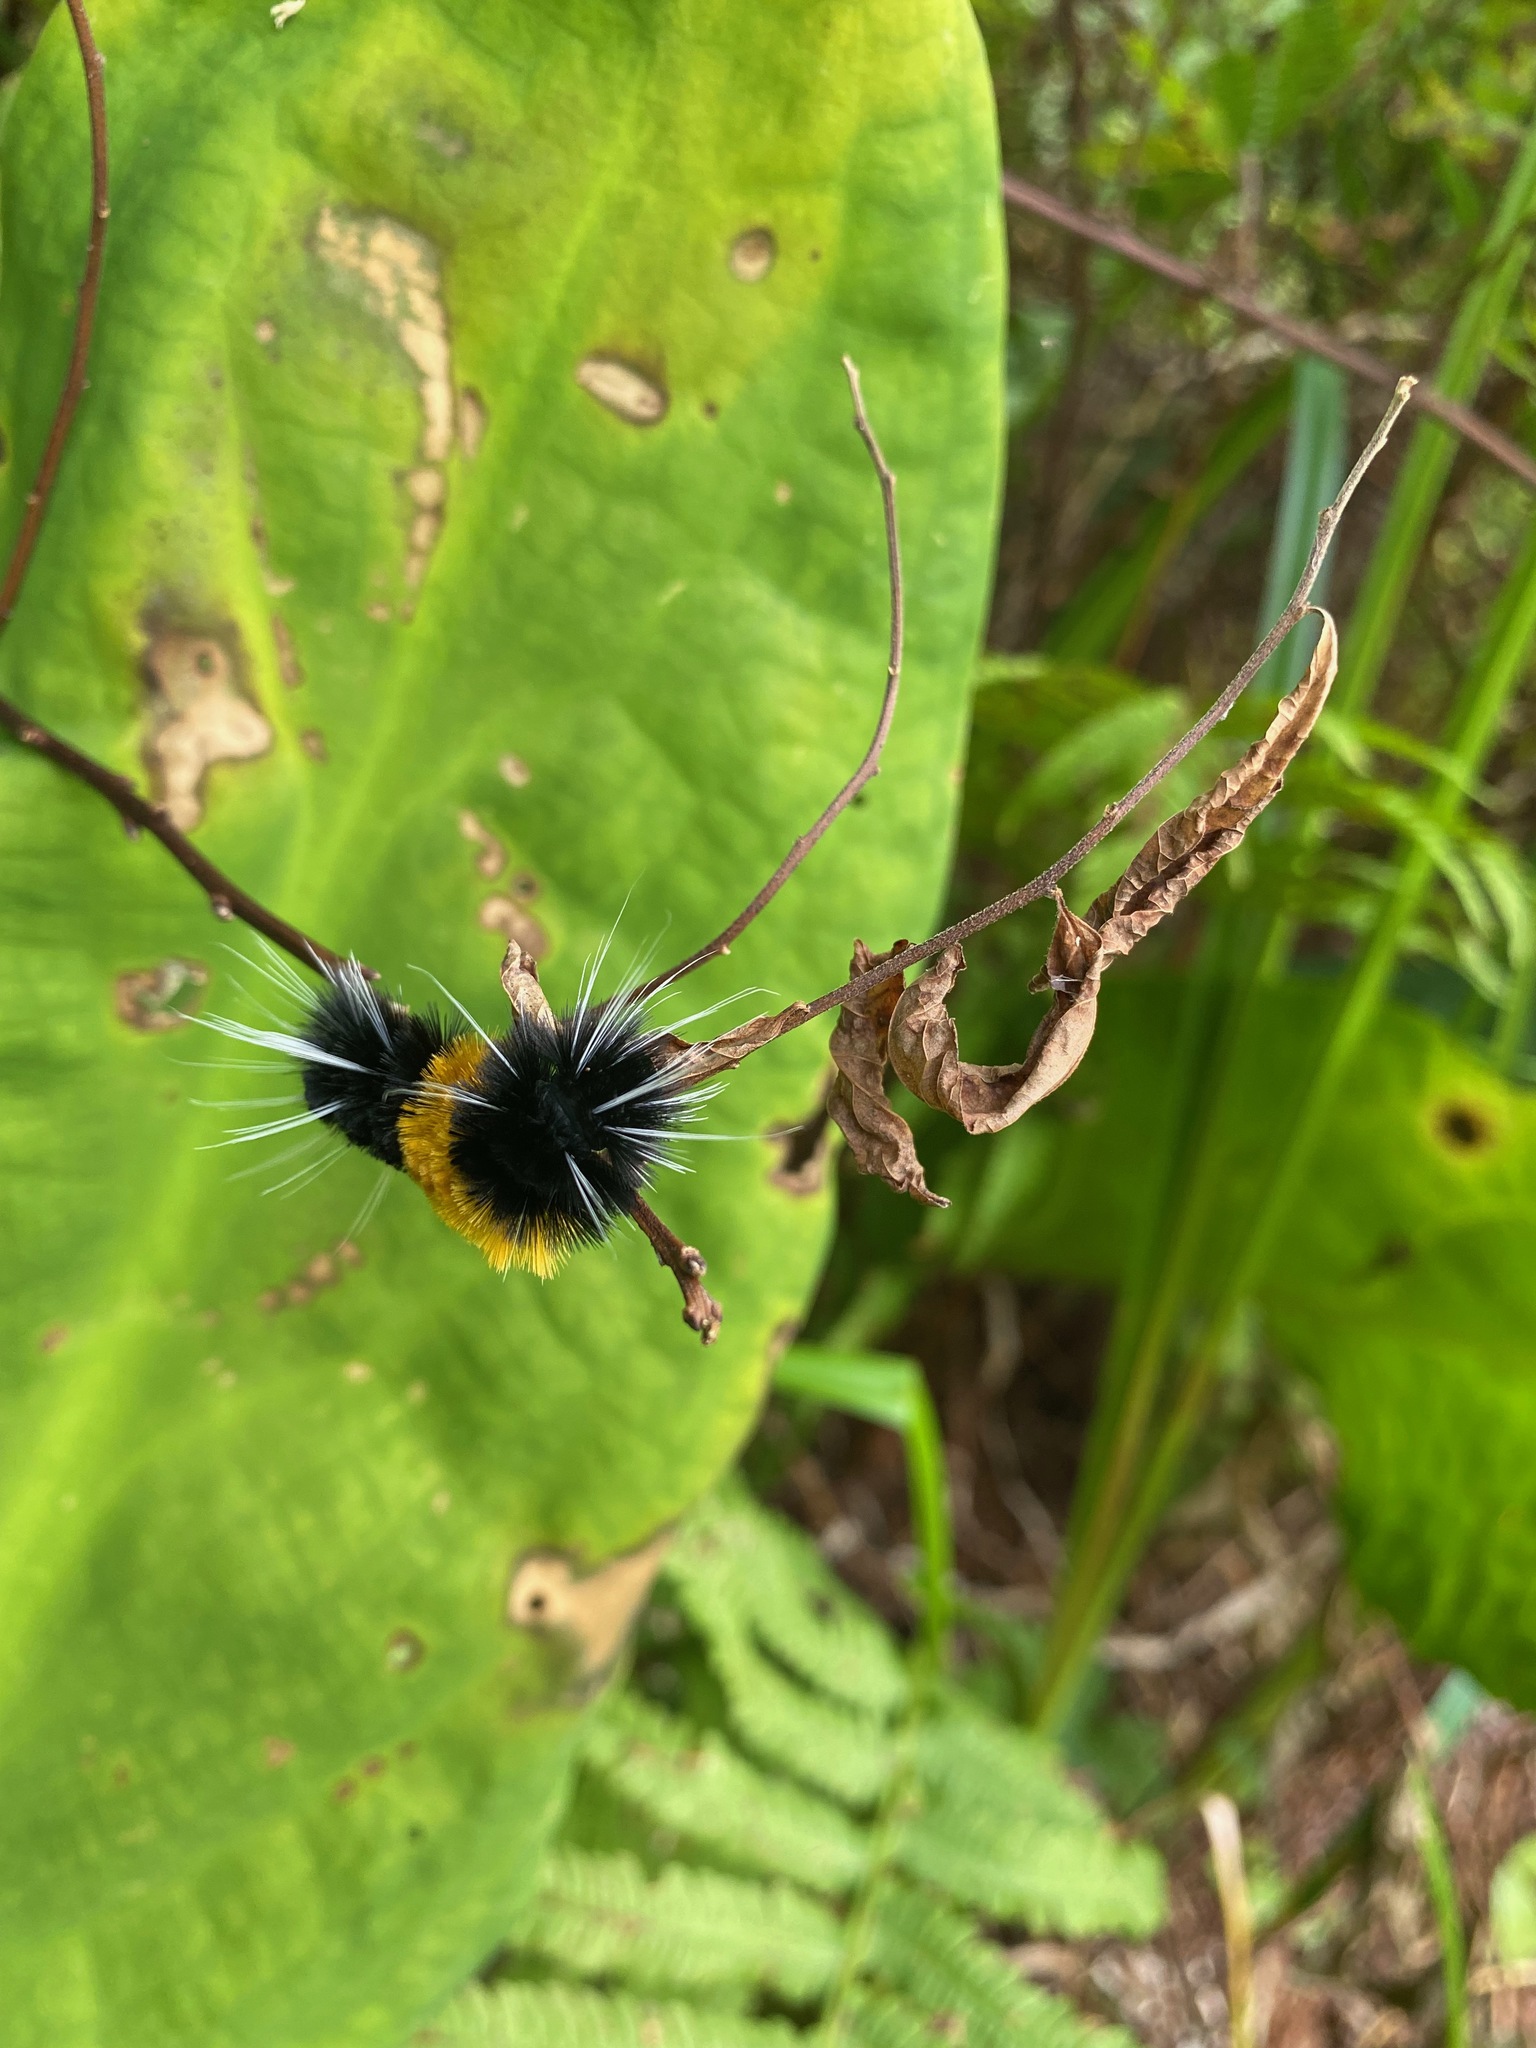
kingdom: Animalia
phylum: Arthropoda
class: Insecta
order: Lepidoptera
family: Erebidae
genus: Lophocampa
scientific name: Lophocampa maculata
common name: Spotted tussock moth
